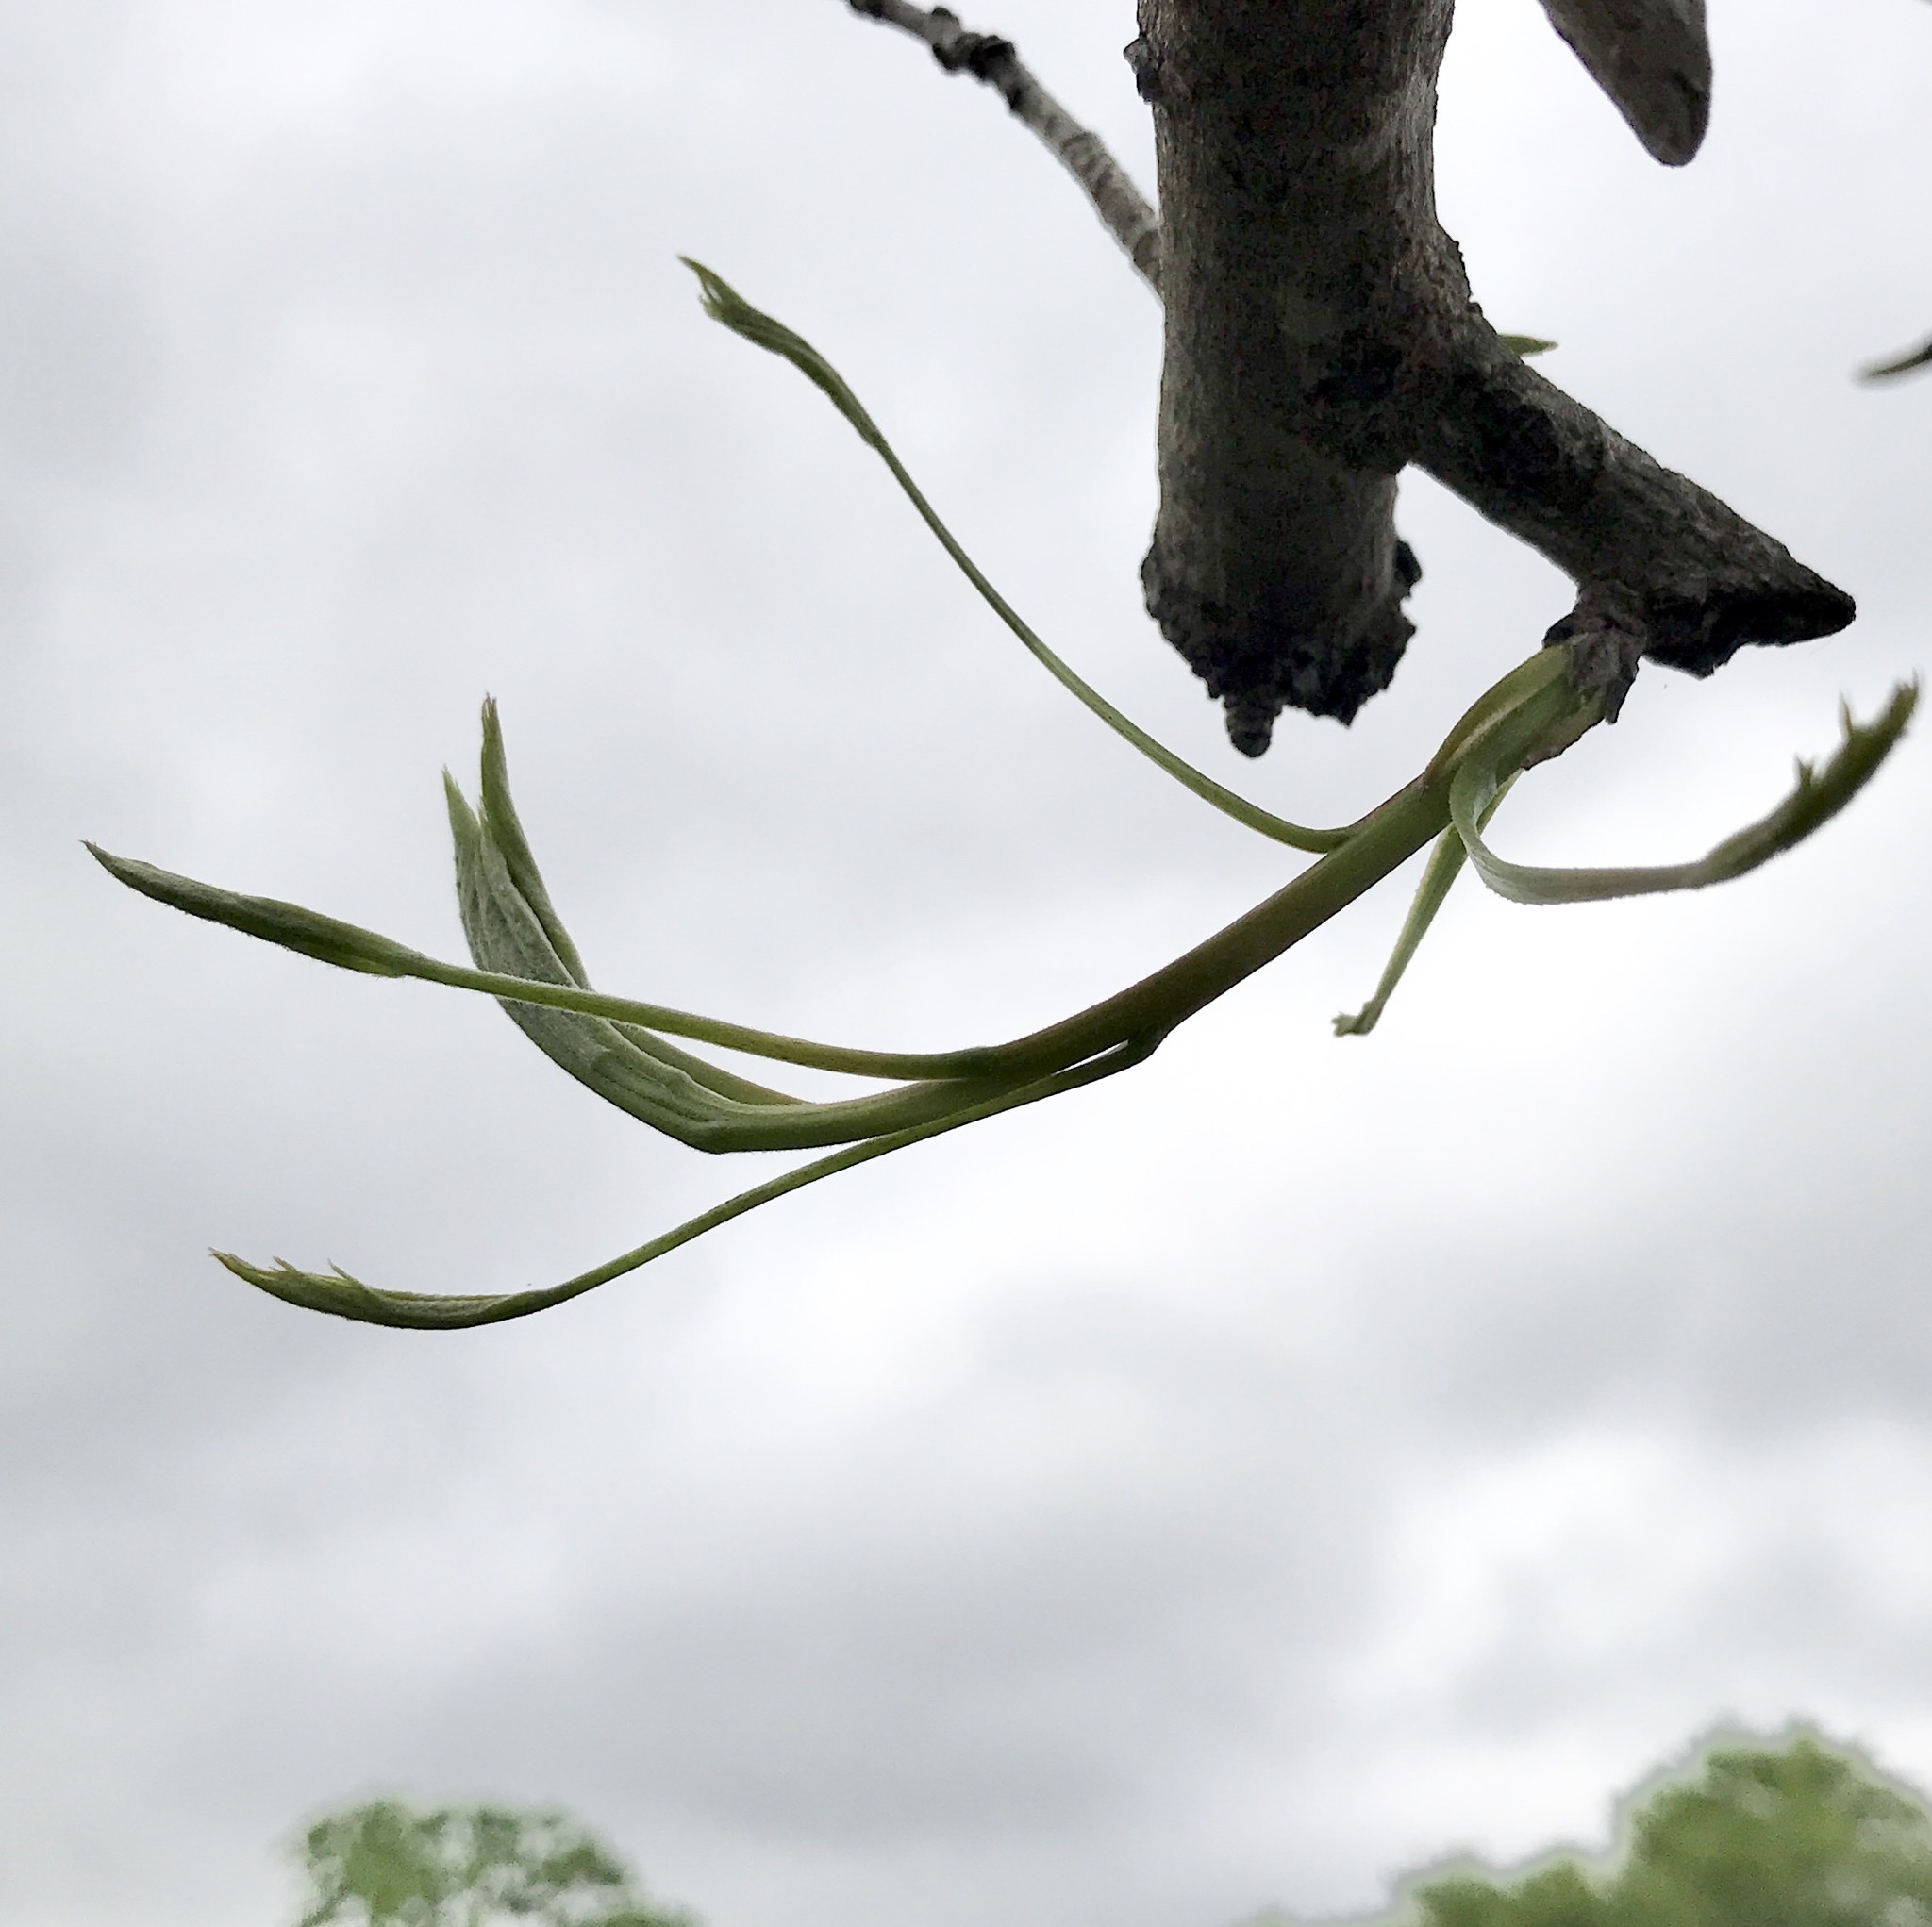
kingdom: Plantae
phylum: Tracheophyta
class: Magnoliopsida
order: Sapindales
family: Anacardiaceae
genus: Pistacia
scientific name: Pistacia chinensis
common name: Chinese pistache
